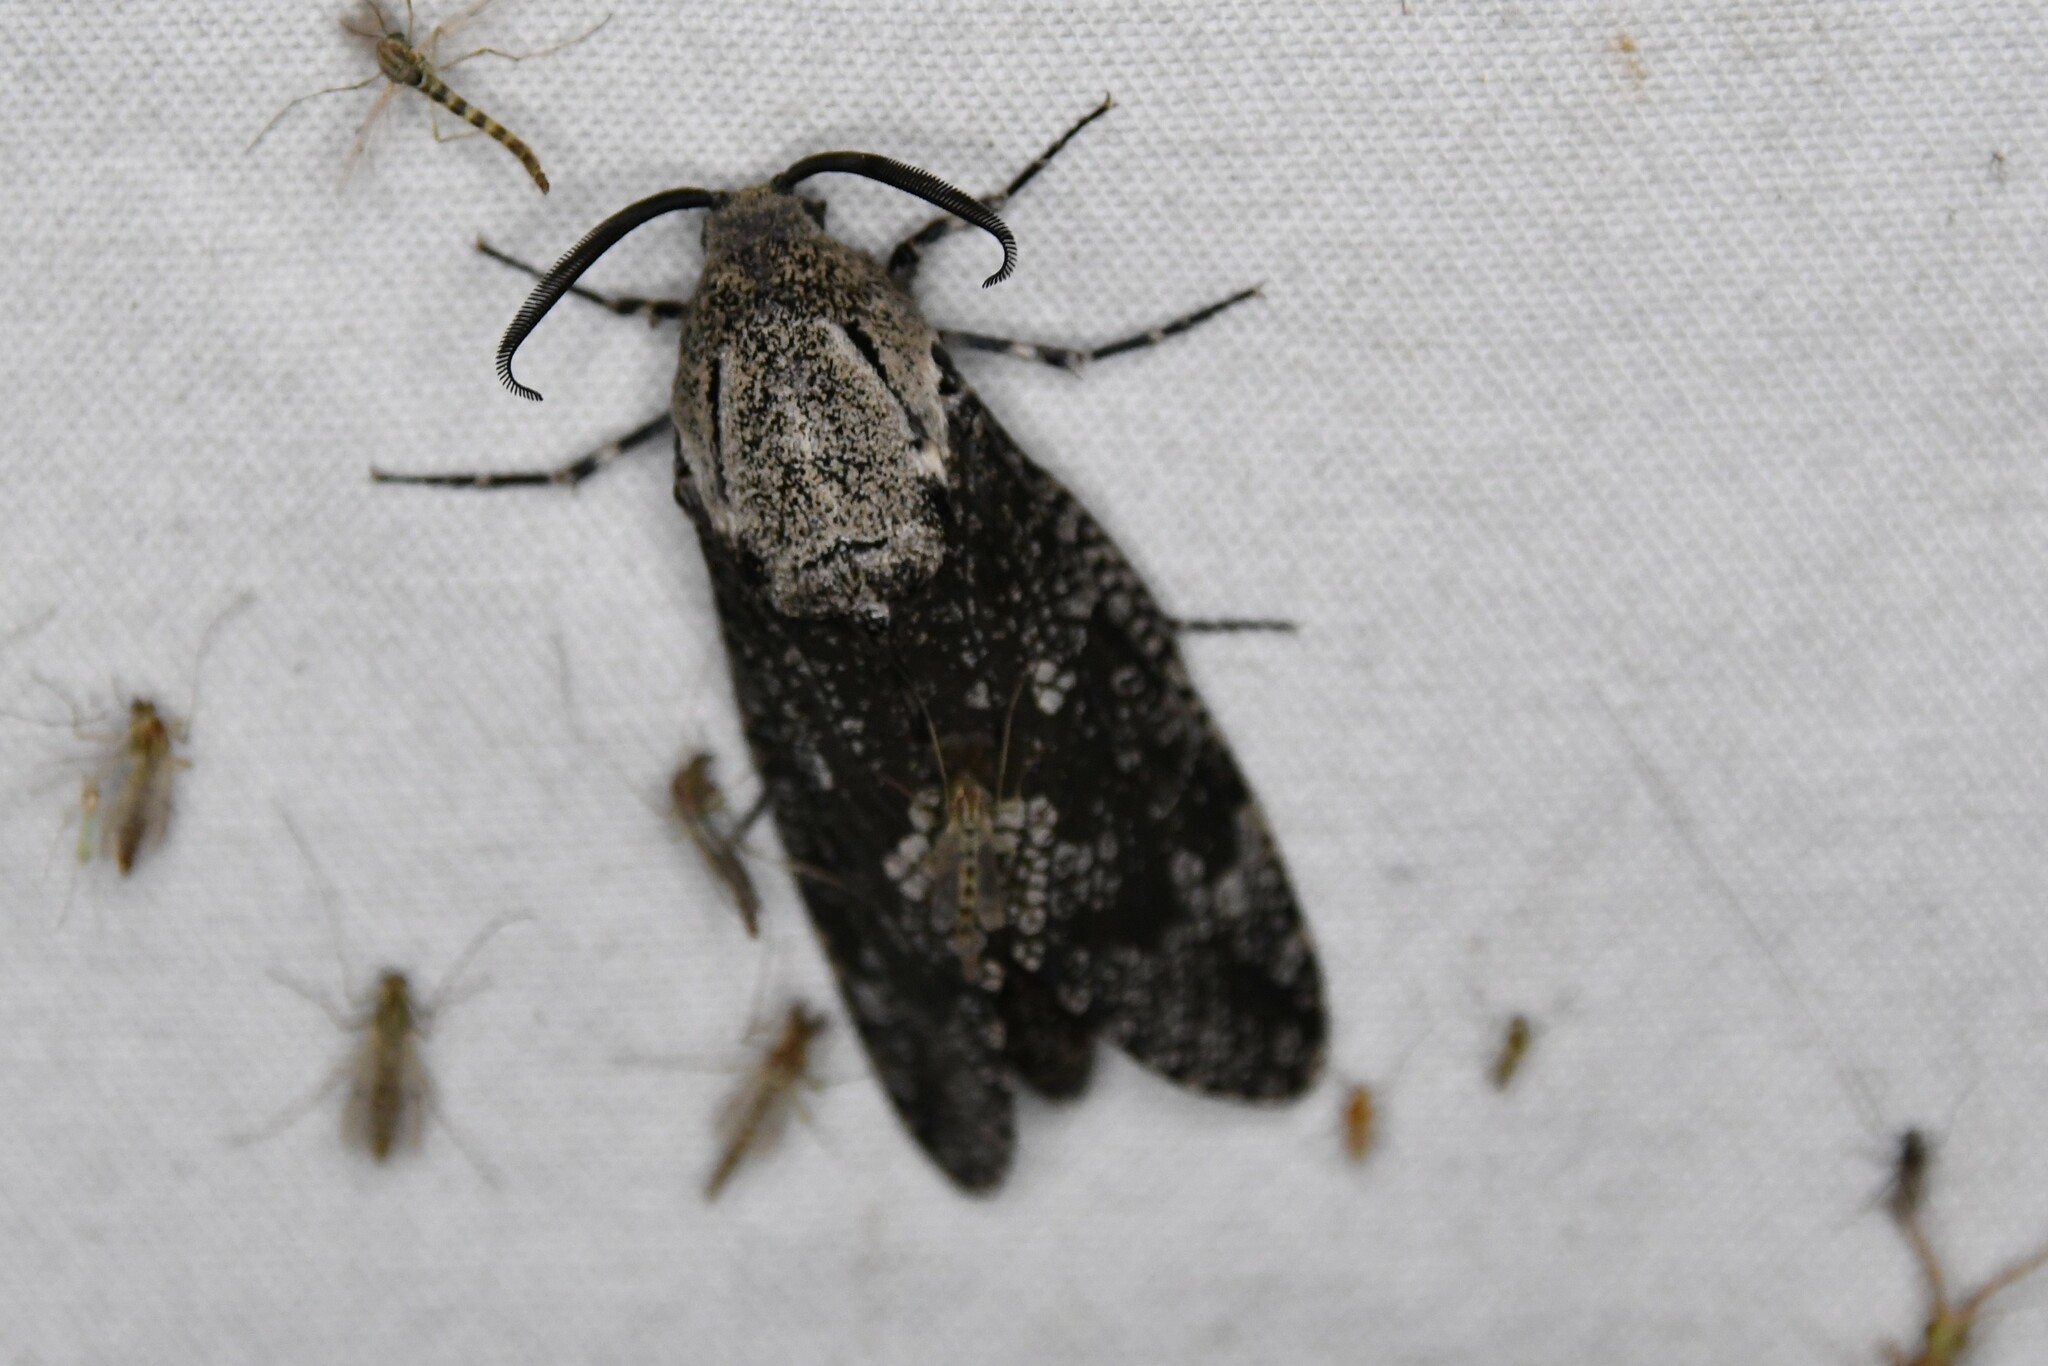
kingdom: Animalia
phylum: Arthropoda
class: Insecta
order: Lepidoptera
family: Cossidae
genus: Prionoxystus
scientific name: Prionoxystus robiniae
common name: Carpenterworm
